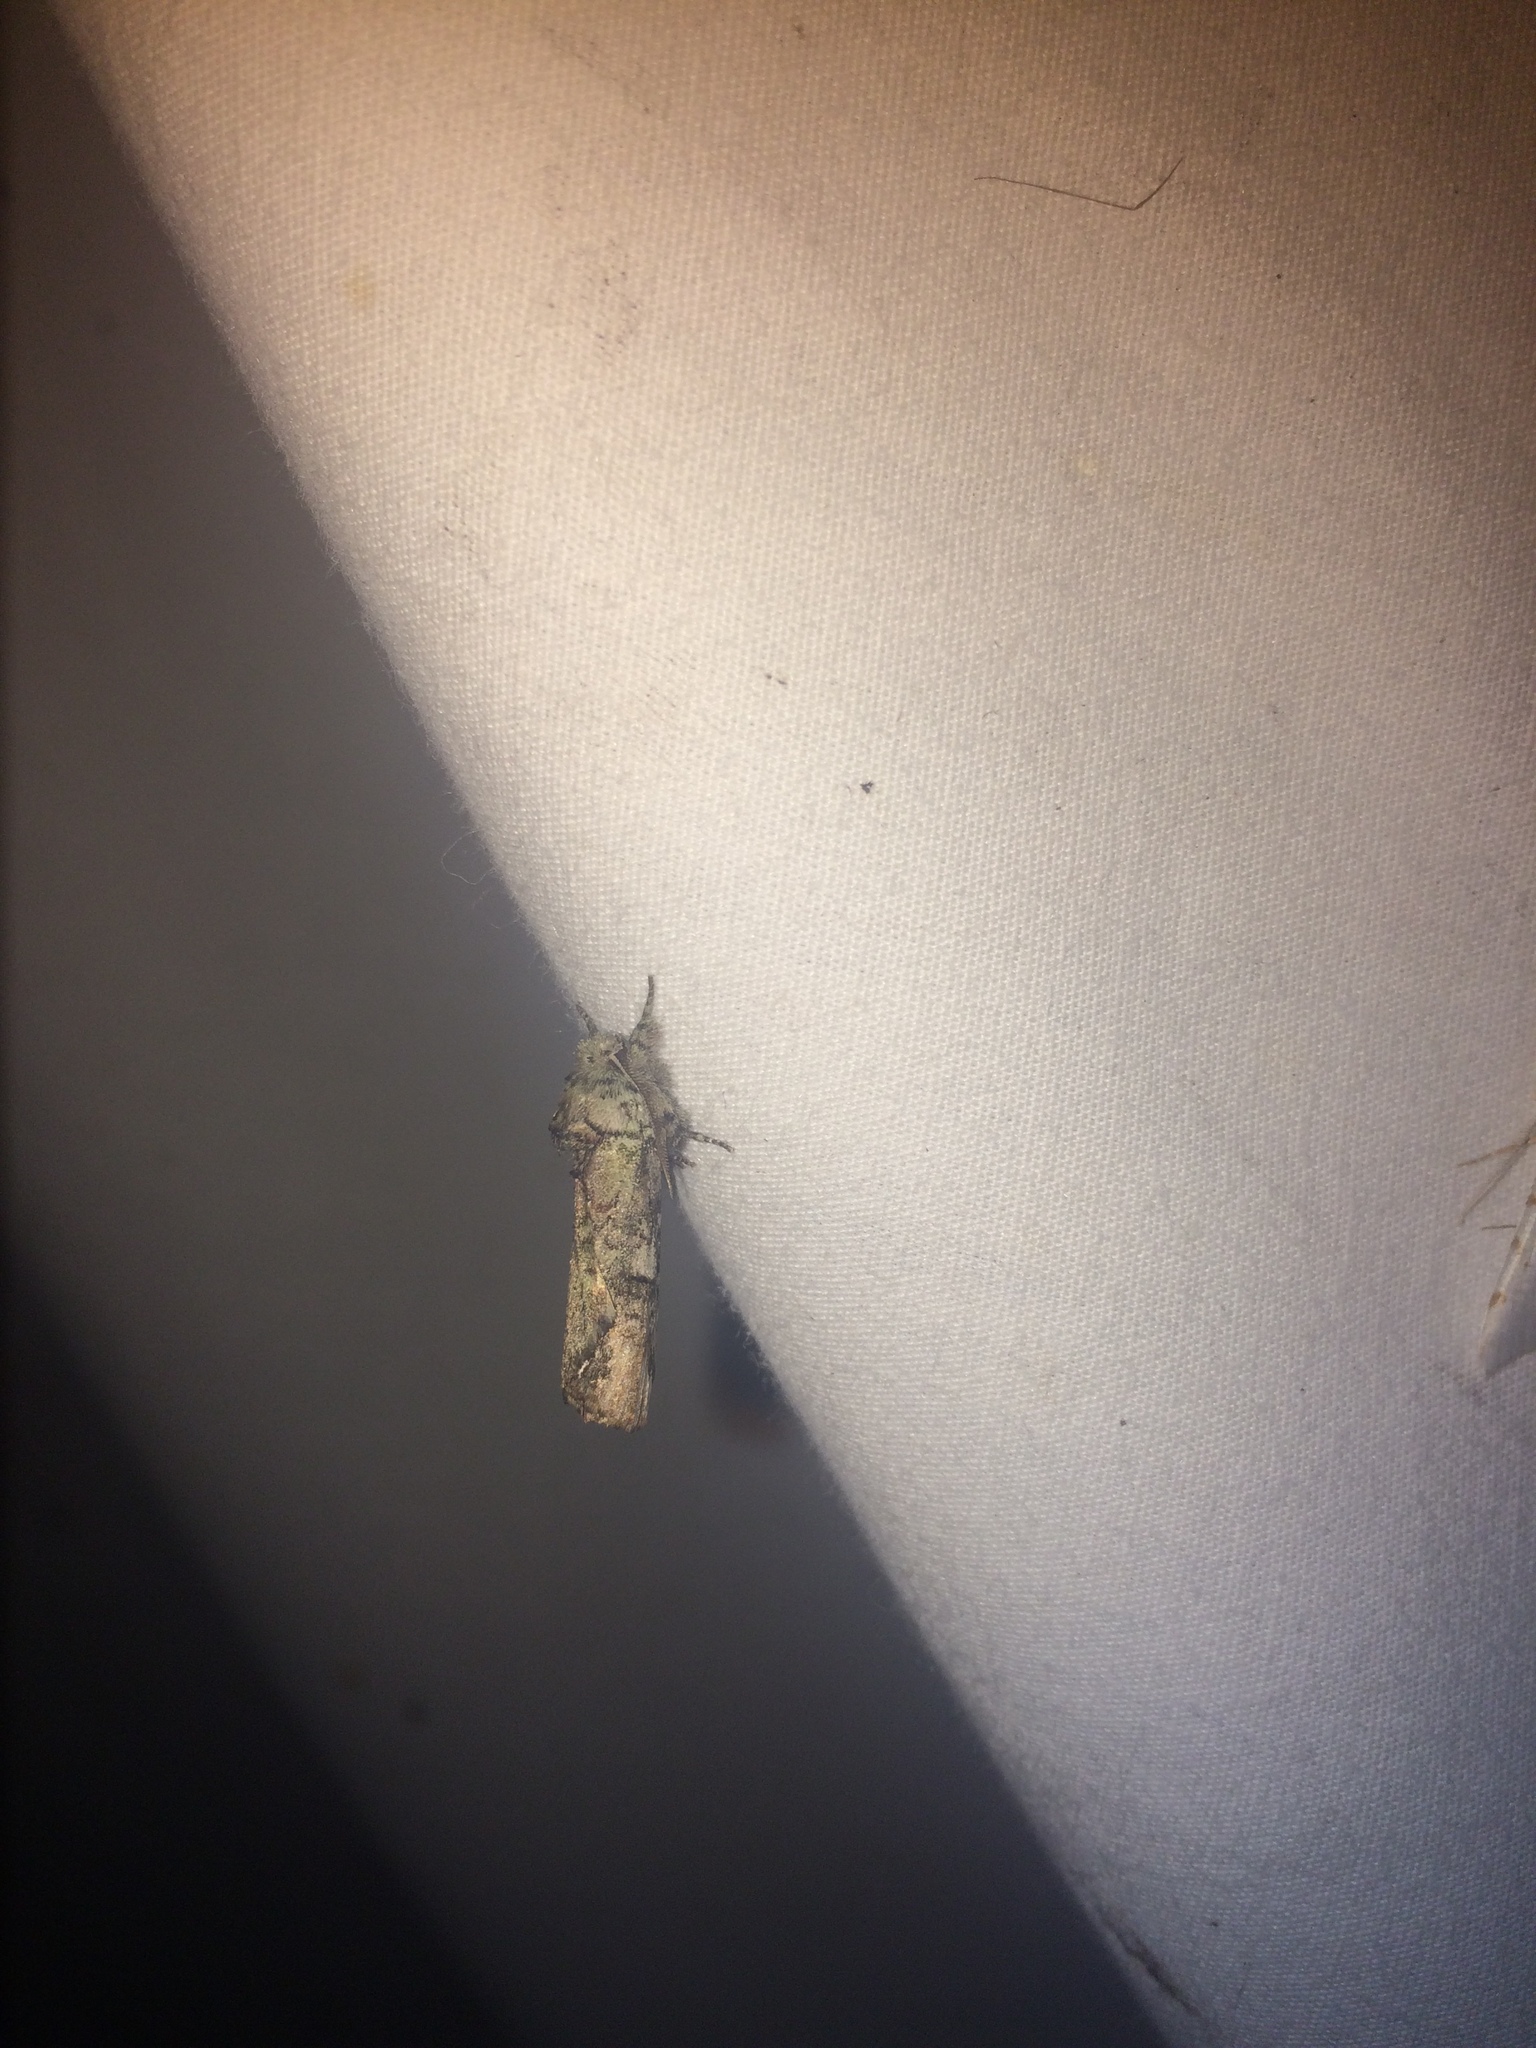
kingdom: Animalia
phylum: Arthropoda
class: Insecta
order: Lepidoptera
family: Notodontidae
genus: Schizura
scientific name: Schizura
